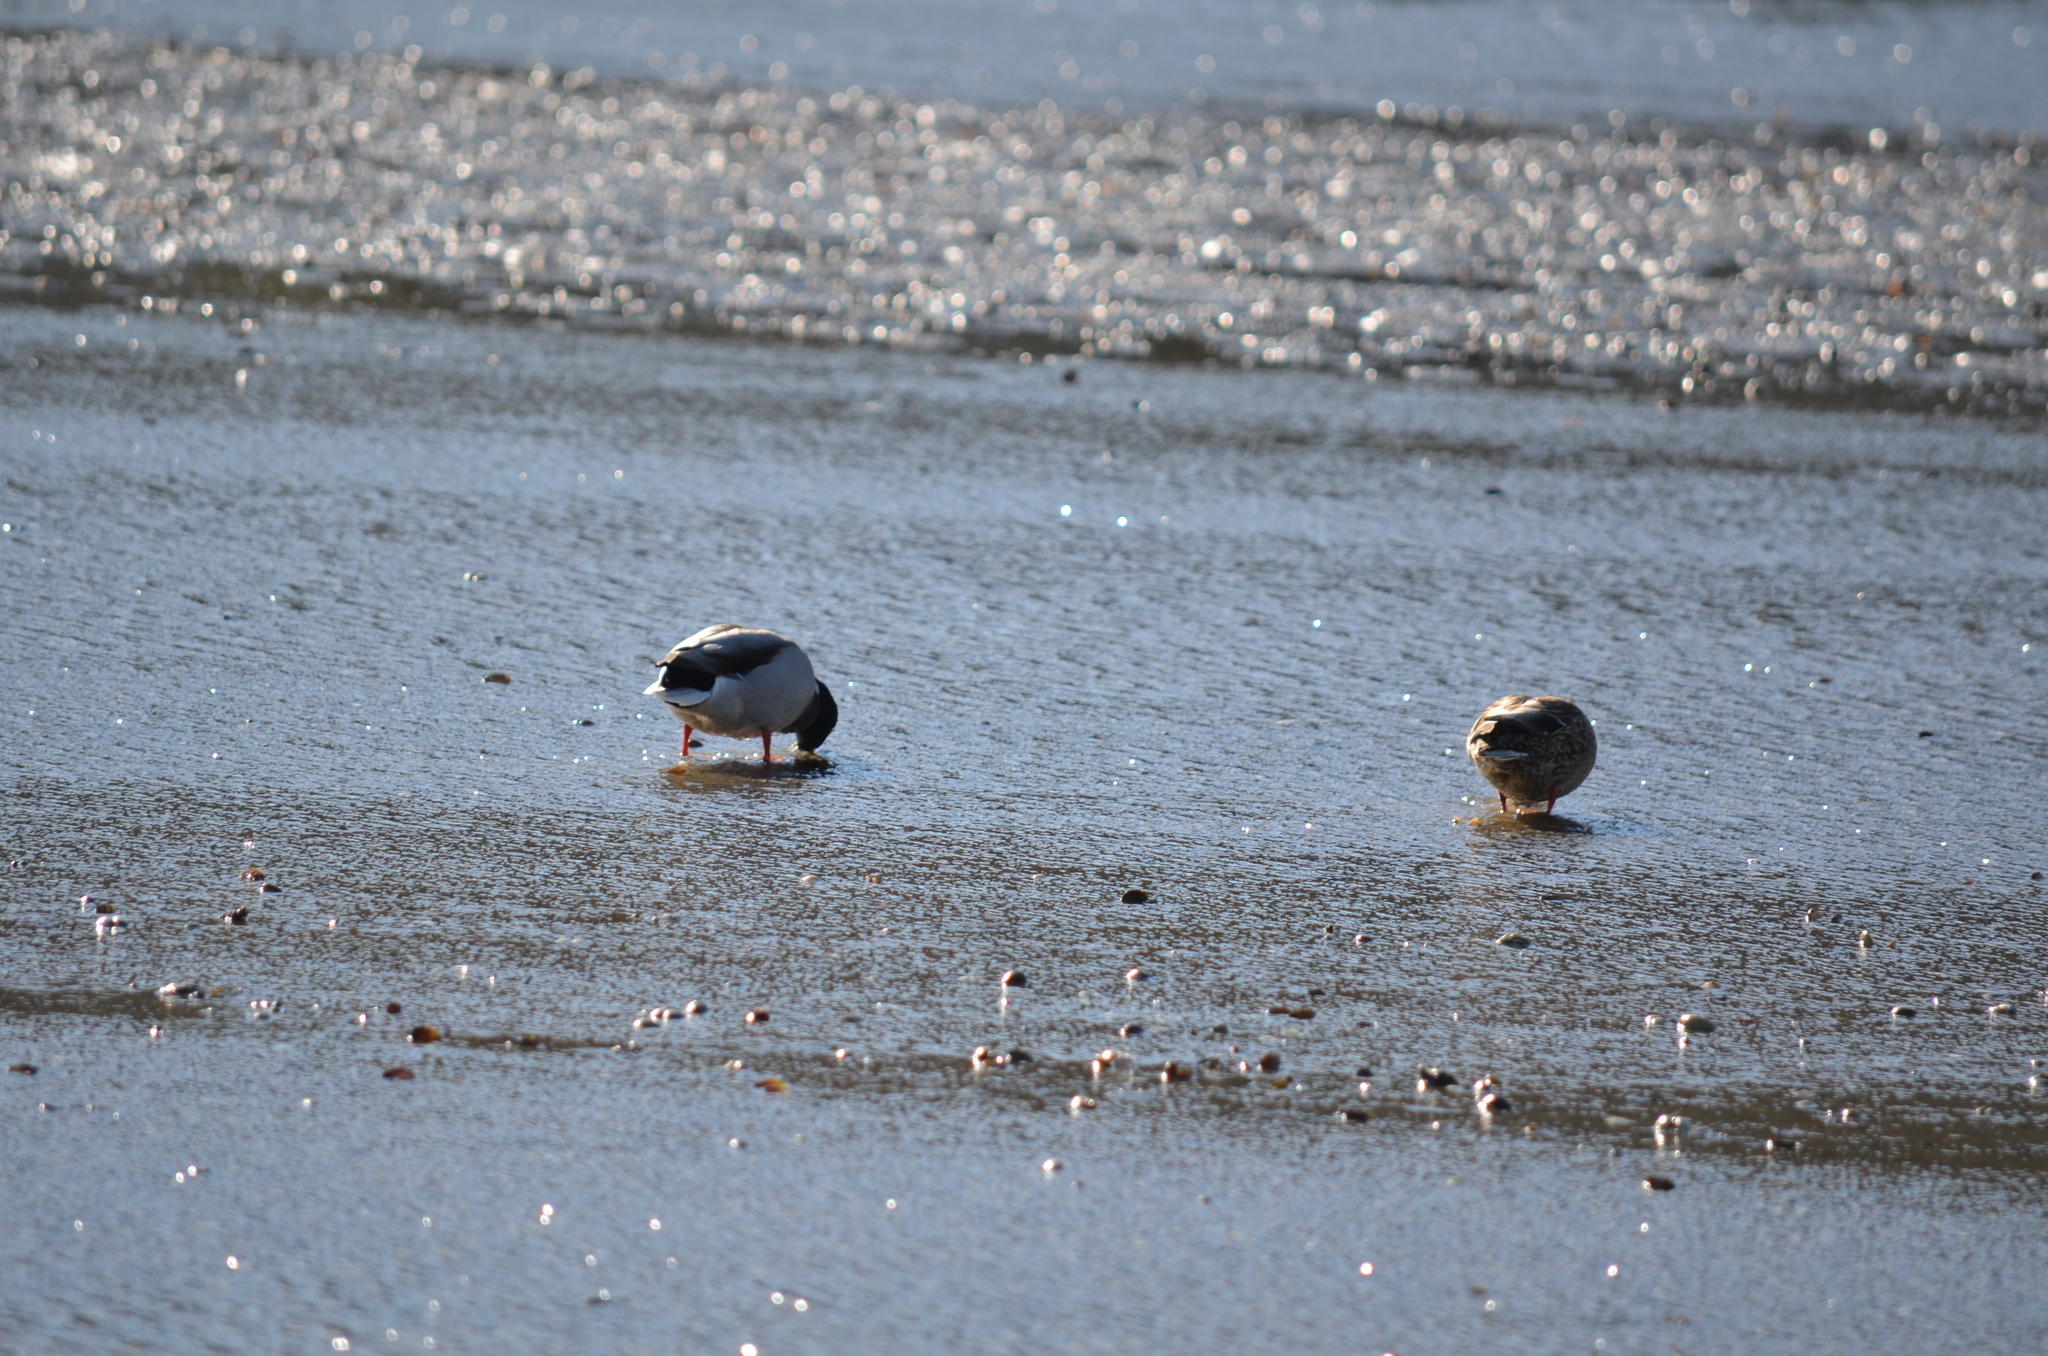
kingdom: Animalia
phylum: Chordata
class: Aves
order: Anseriformes
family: Anatidae
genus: Anas
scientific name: Anas platyrhynchos
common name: Mallard
